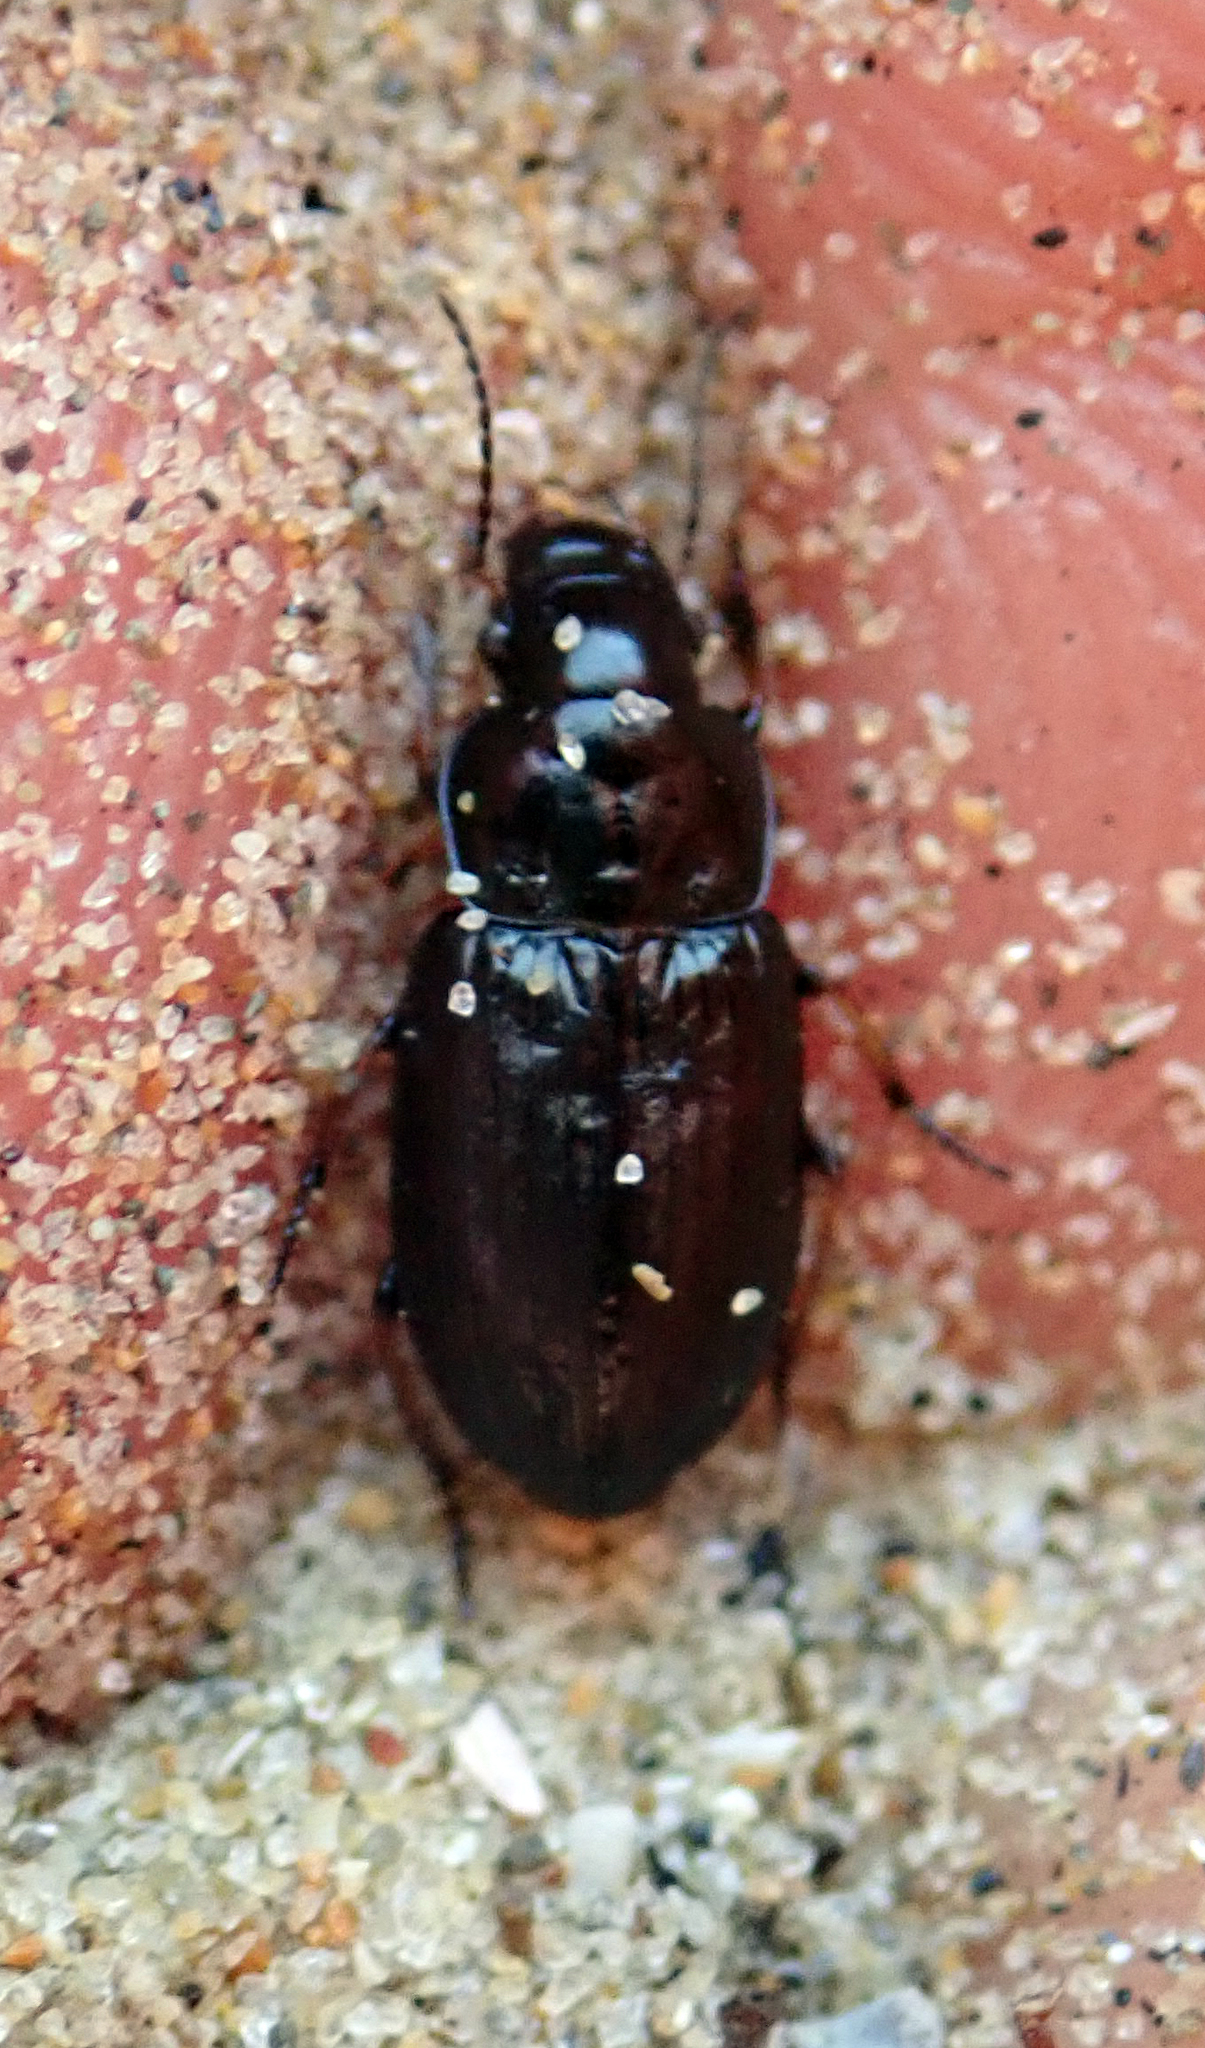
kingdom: Animalia
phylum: Arthropoda
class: Insecta
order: Coleoptera
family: Carabidae
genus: Hypharpax
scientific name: Hypharpax antarcticus
